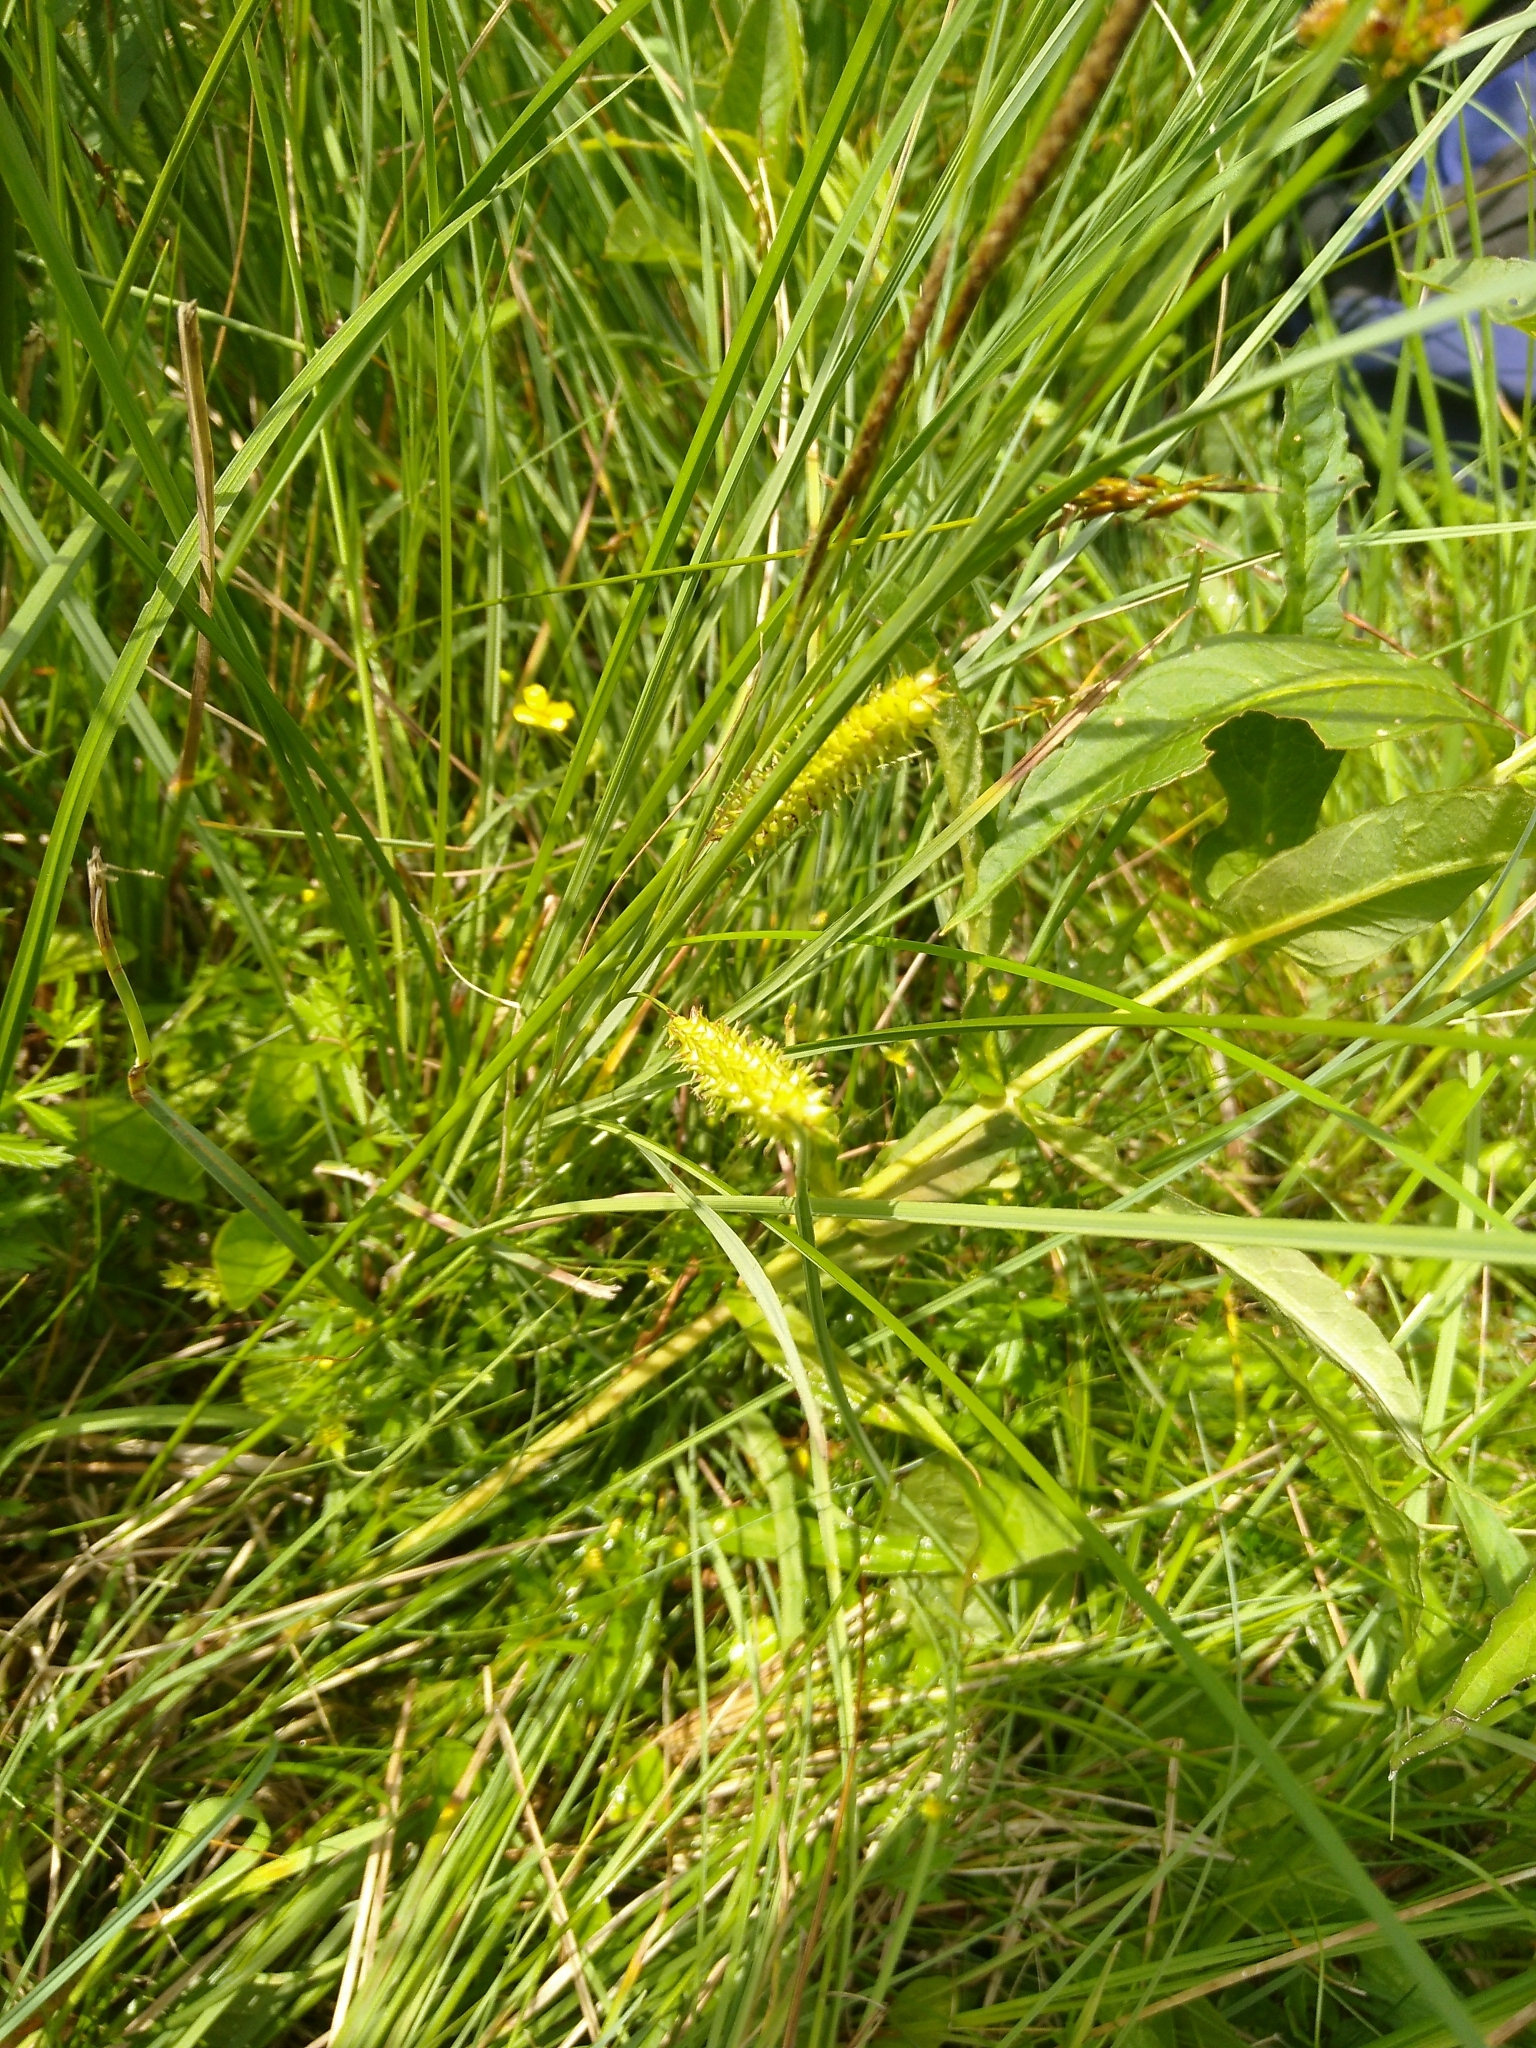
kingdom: Plantae
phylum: Tracheophyta
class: Liliopsida
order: Poales
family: Cyperaceae
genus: Carex
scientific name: Carex rostrata
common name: Bottle sedge
